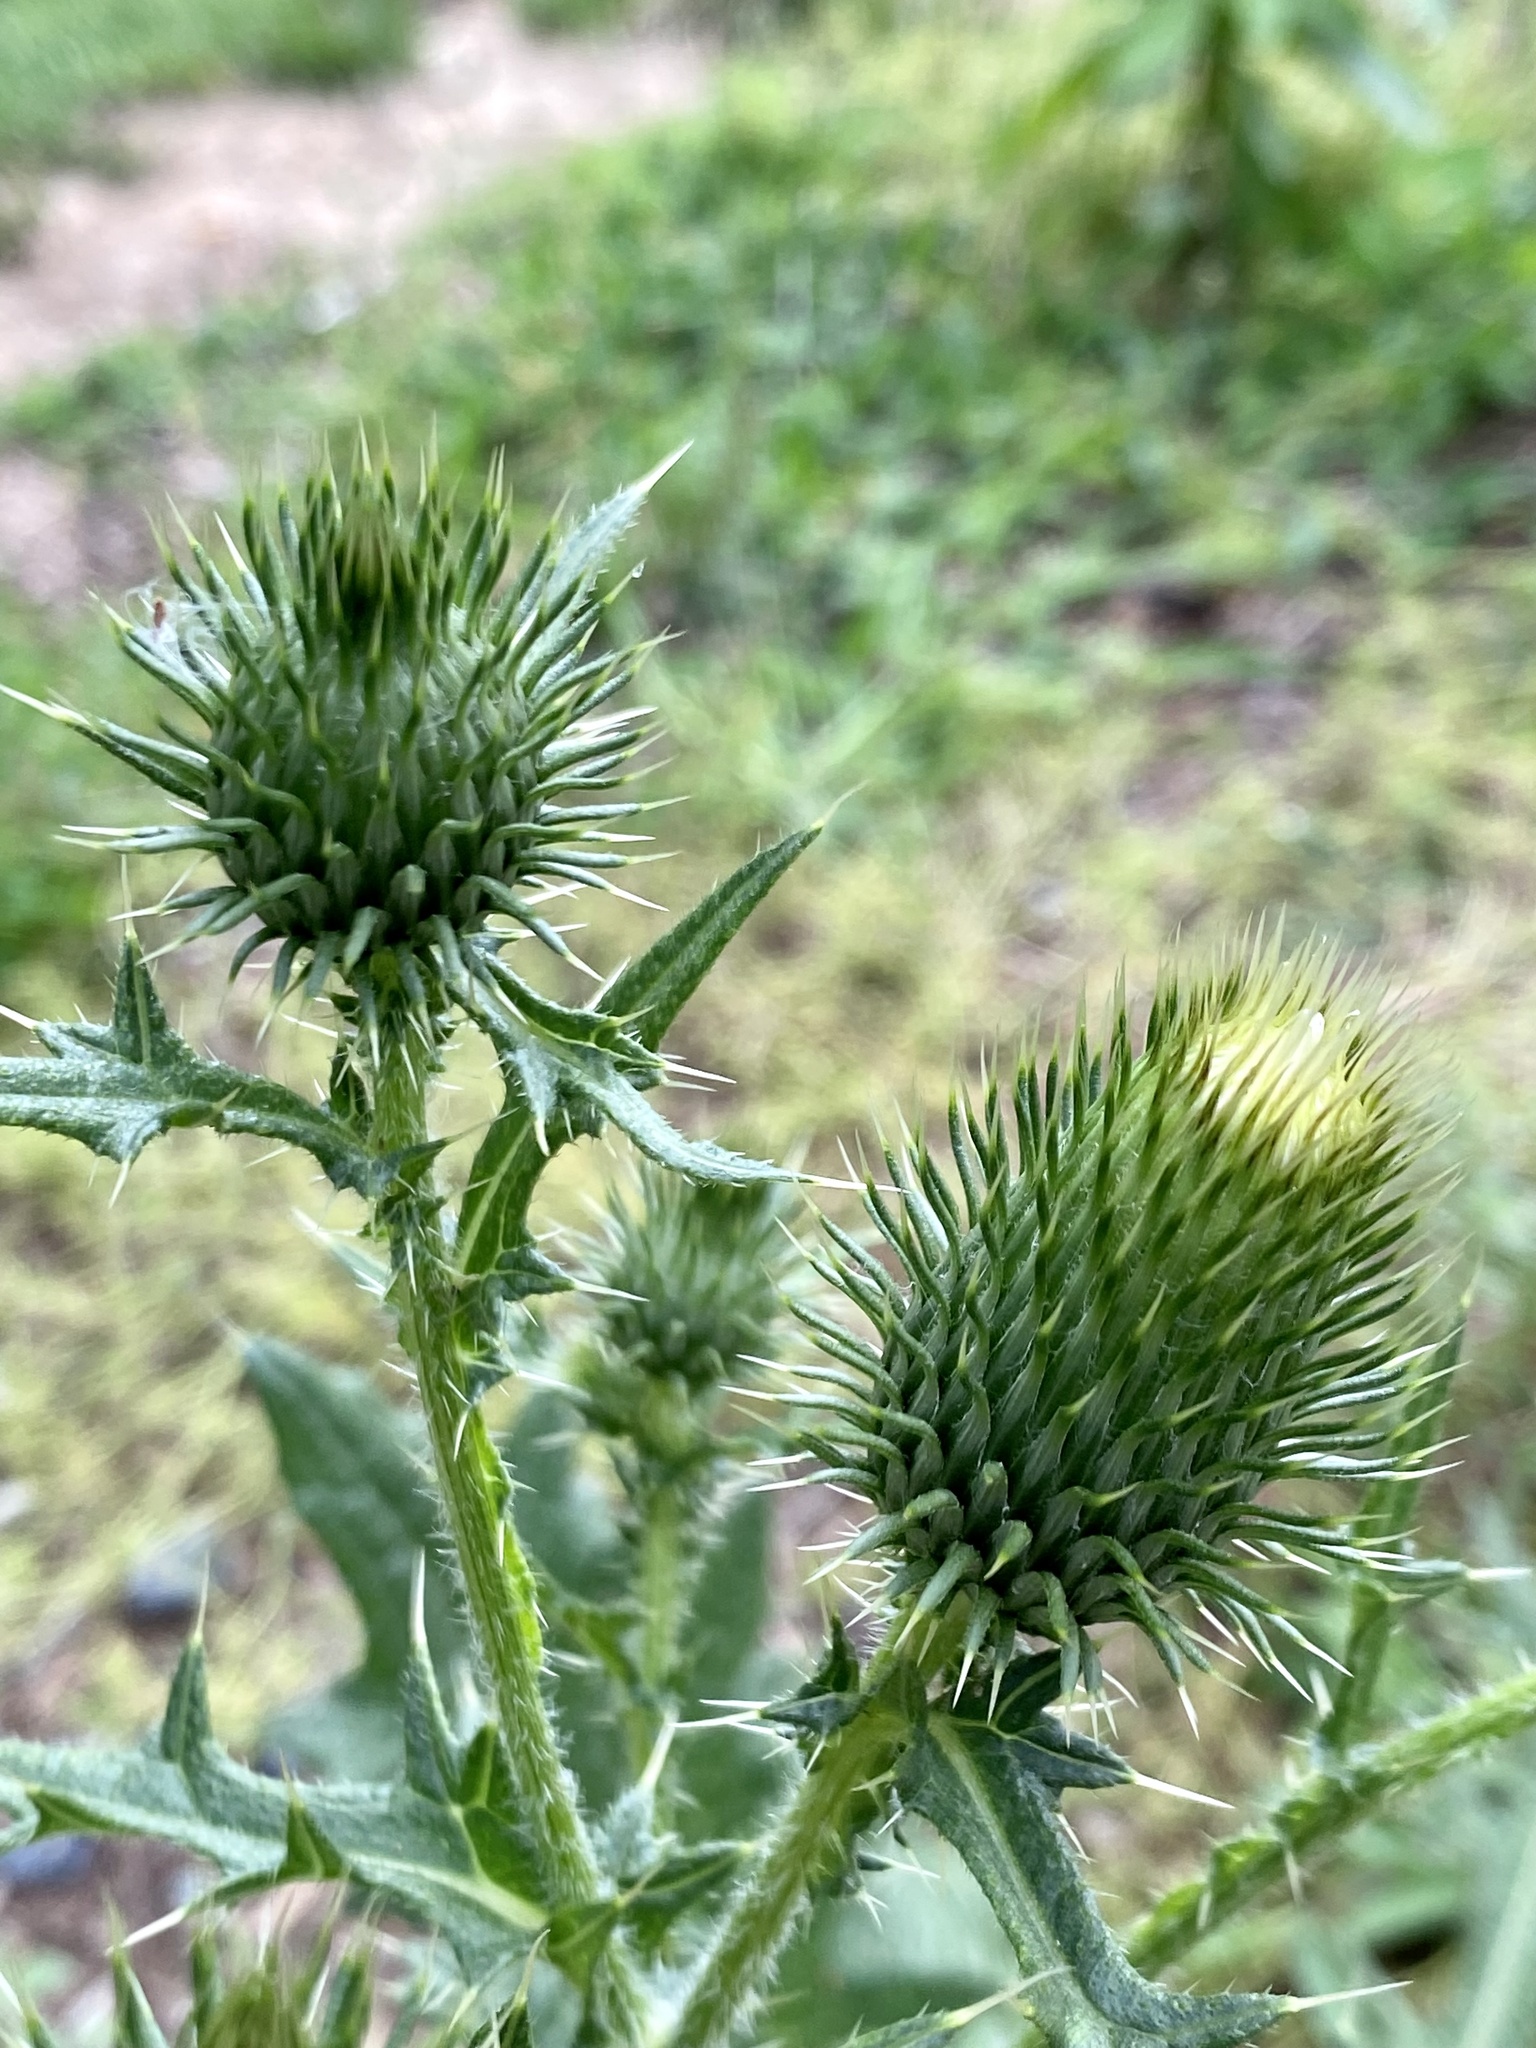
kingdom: Plantae
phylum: Tracheophyta
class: Magnoliopsida
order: Asterales
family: Asteraceae
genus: Cirsium
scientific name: Cirsium vulgare
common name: Bull thistle
